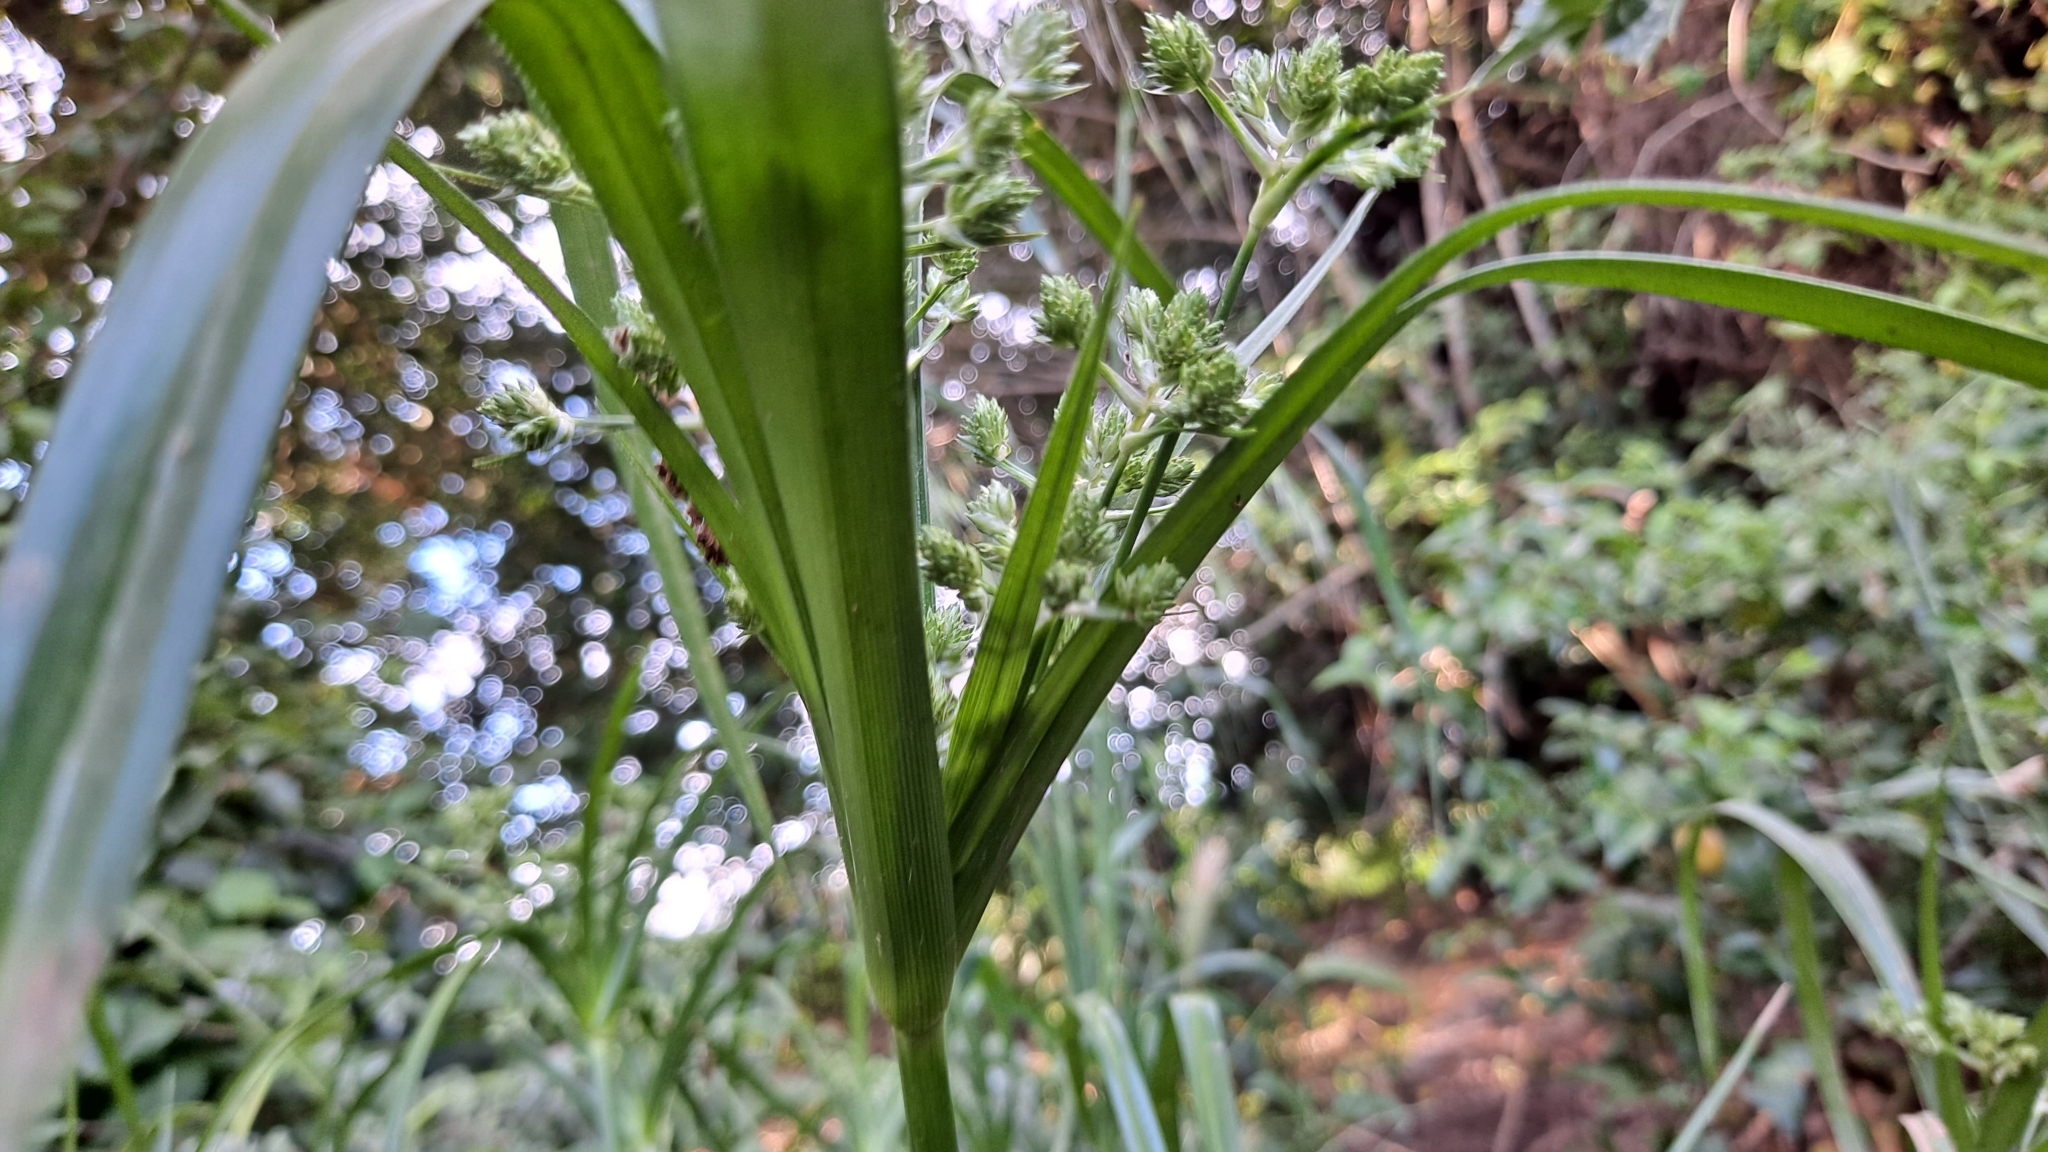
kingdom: Plantae
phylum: Tracheophyta
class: Liliopsida
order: Poales
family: Cyperaceae
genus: Cyperus
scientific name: Cyperus eragrostis
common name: Tall flatsedge
